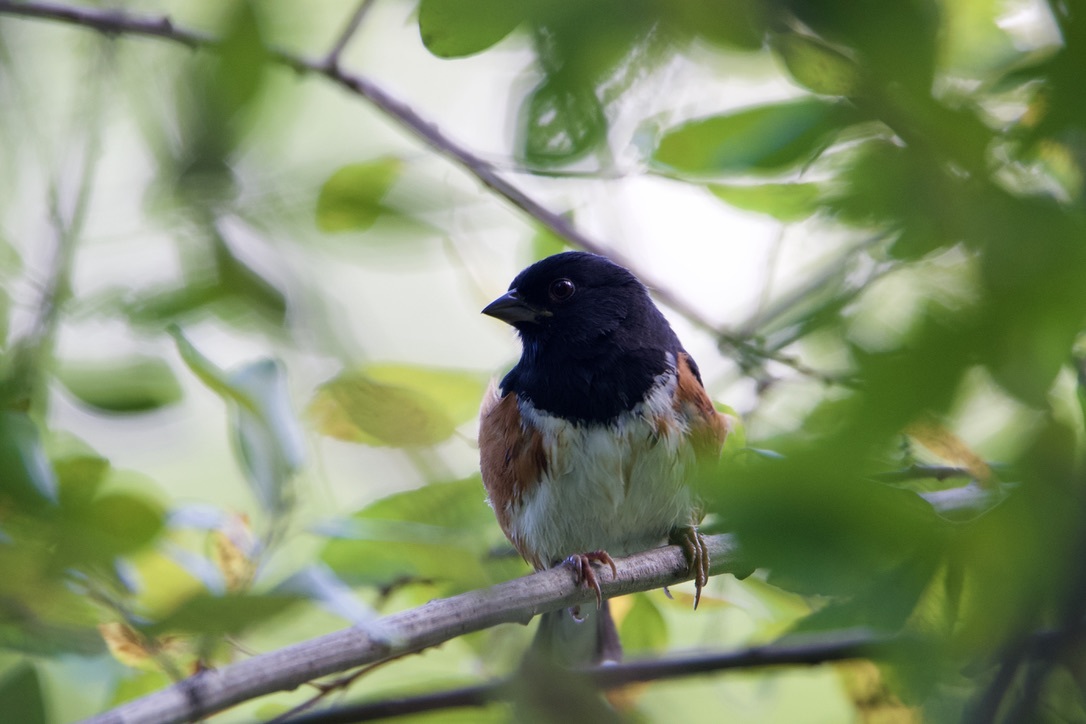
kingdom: Animalia
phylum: Chordata
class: Aves
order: Passeriformes
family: Passerellidae
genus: Pipilo
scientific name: Pipilo erythrophthalmus
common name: Eastern towhee
